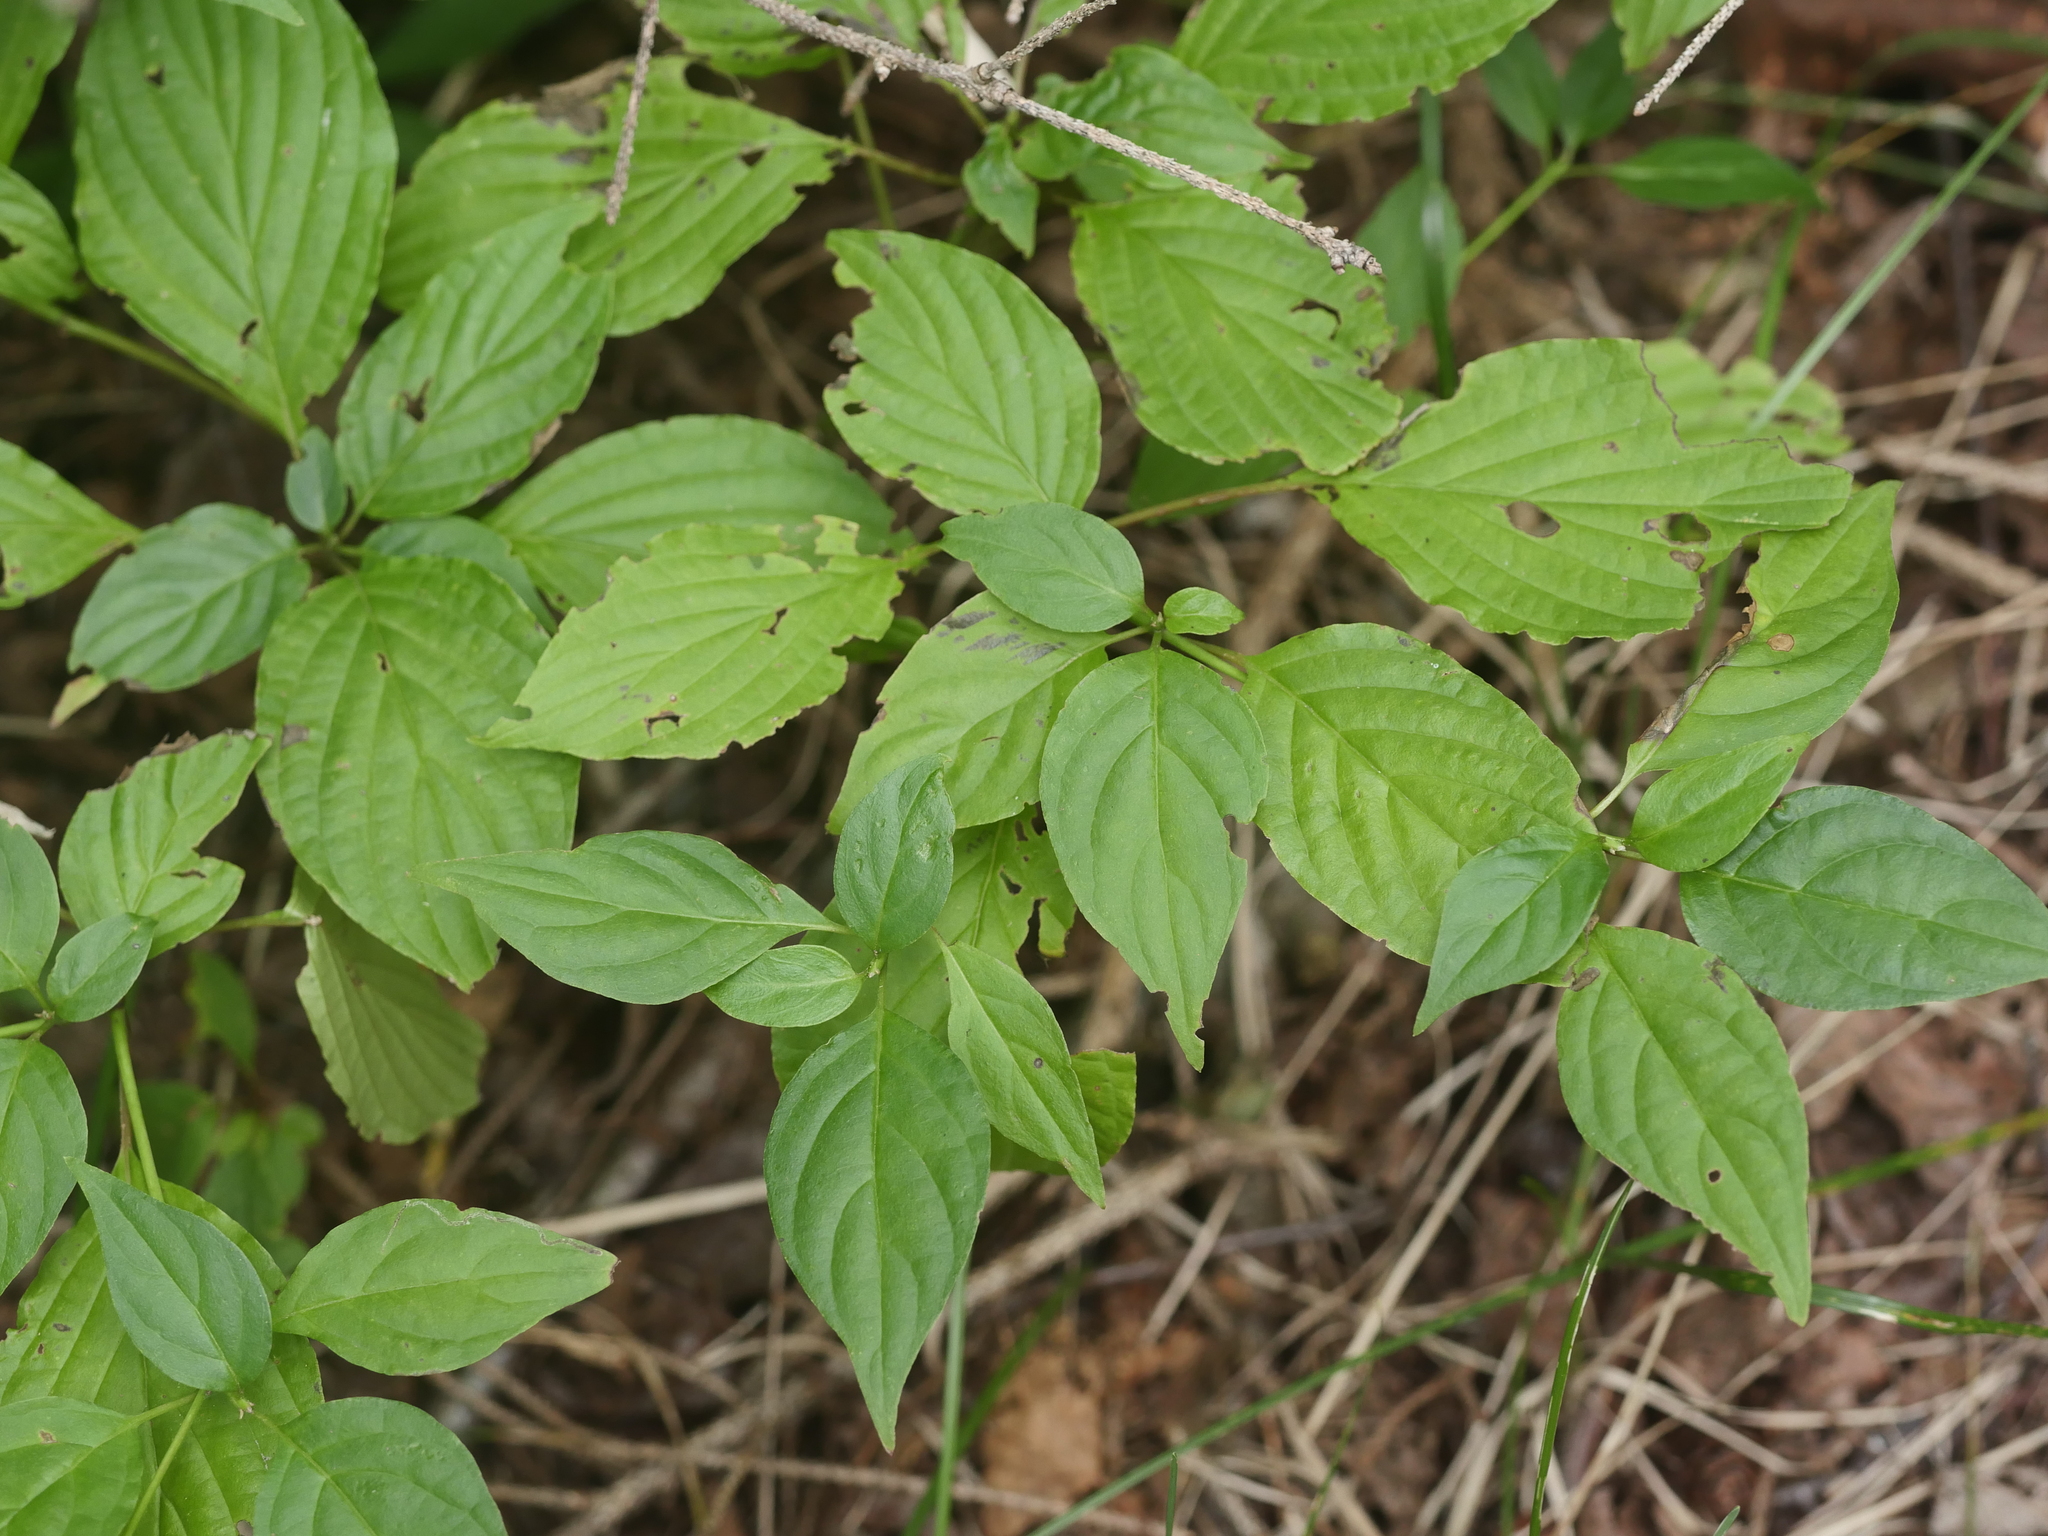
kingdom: Plantae
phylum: Tracheophyta
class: Magnoliopsida
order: Cornales
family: Cornaceae
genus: Cornus
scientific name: Cornus alternifolia
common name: Pagoda dogwood
